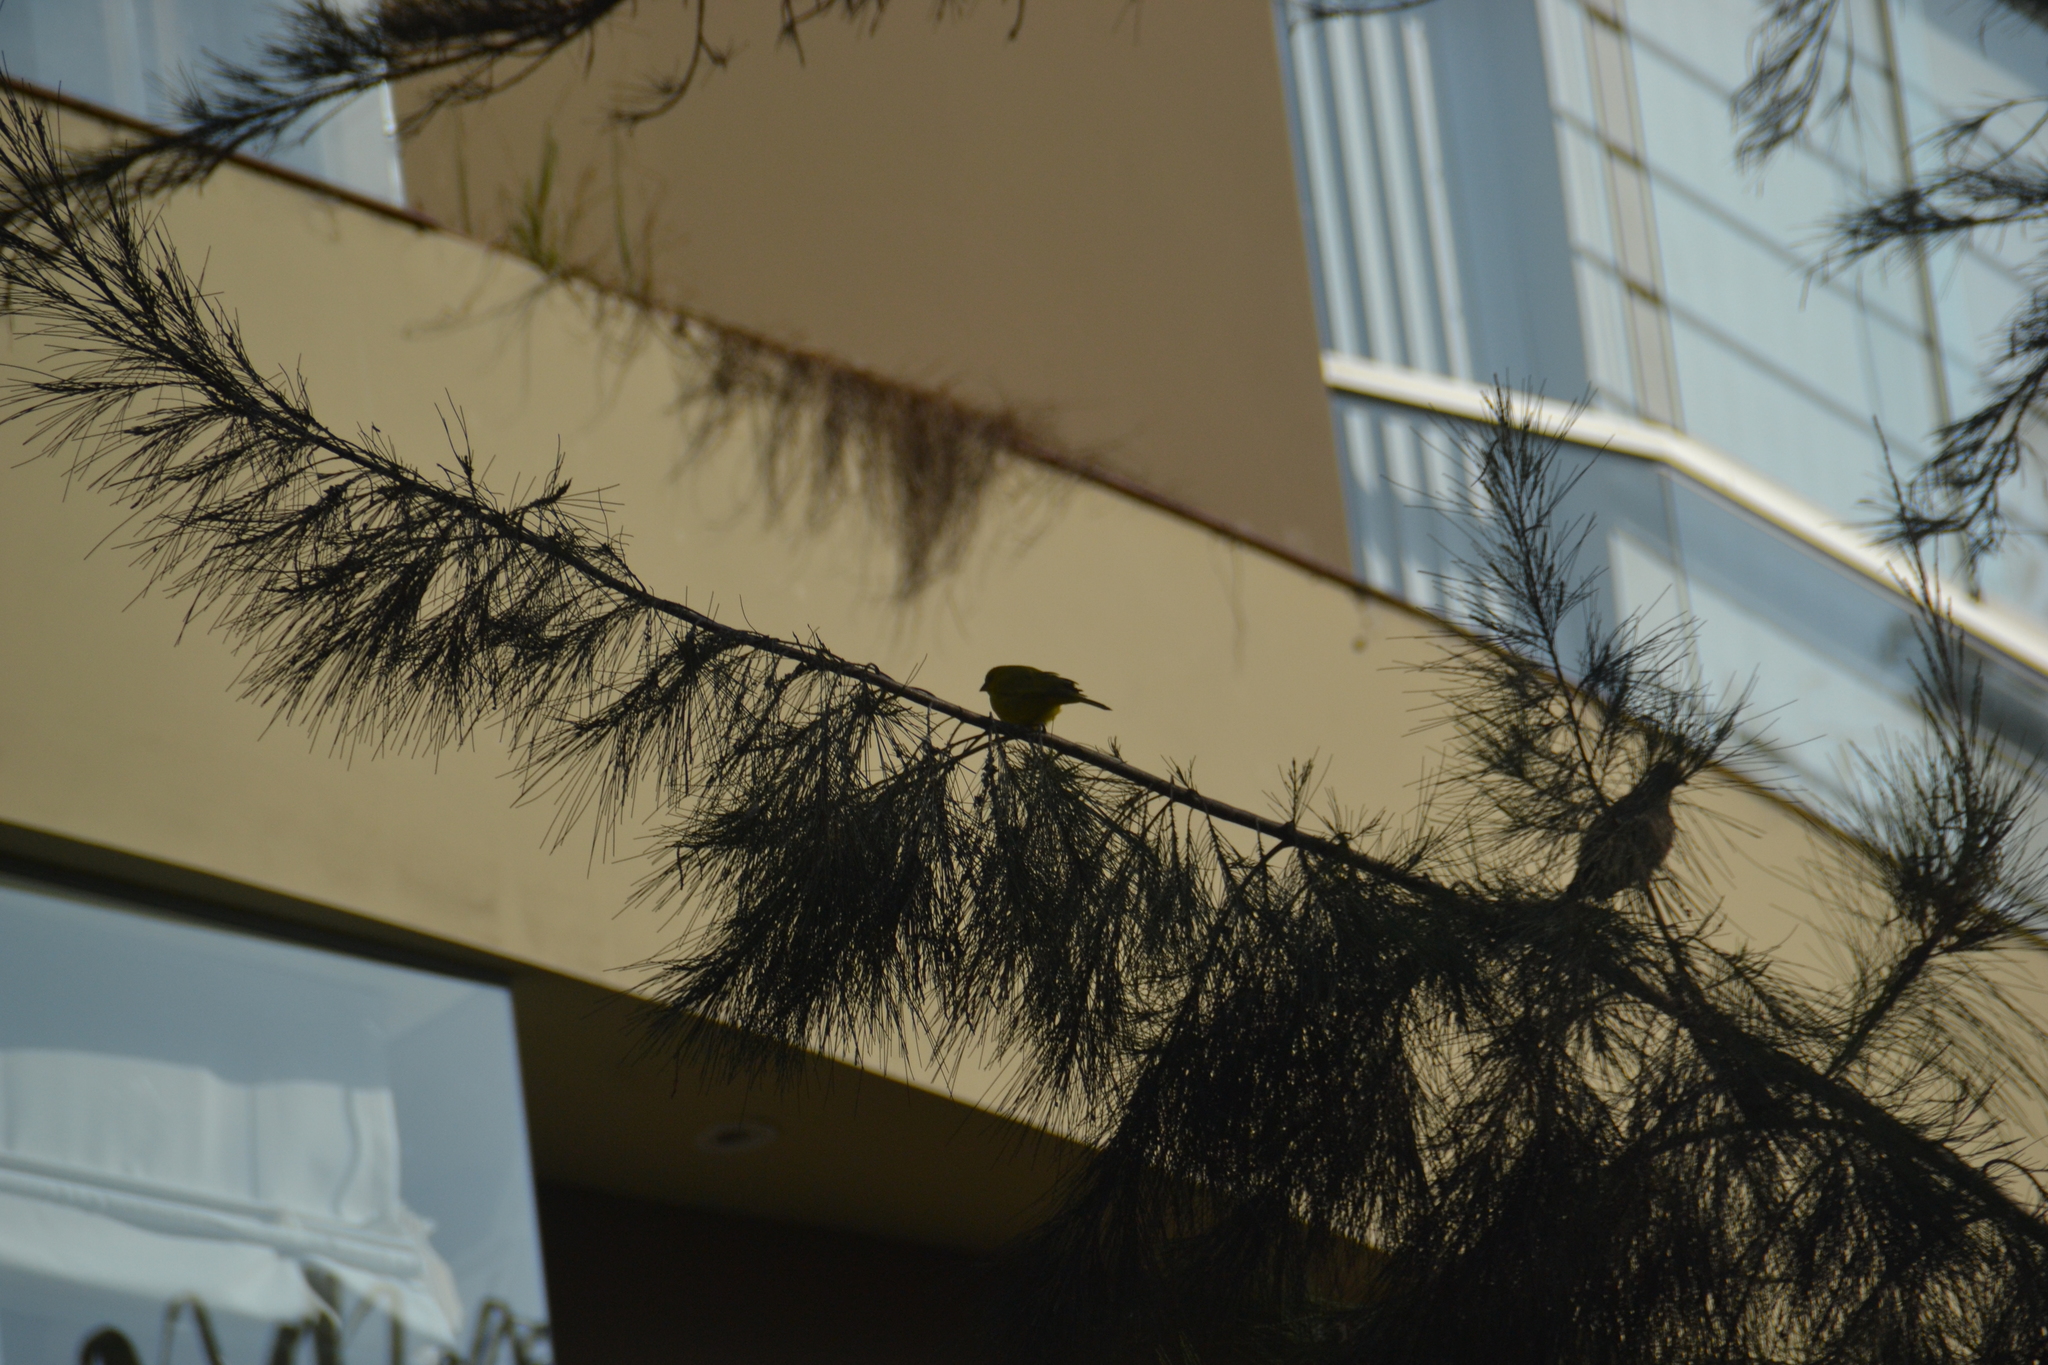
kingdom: Animalia
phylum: Chordata
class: Aves
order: Passeriformes
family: Thraupidae
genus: Sicalis
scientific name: Sicalis flaveola
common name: Saffron finch
